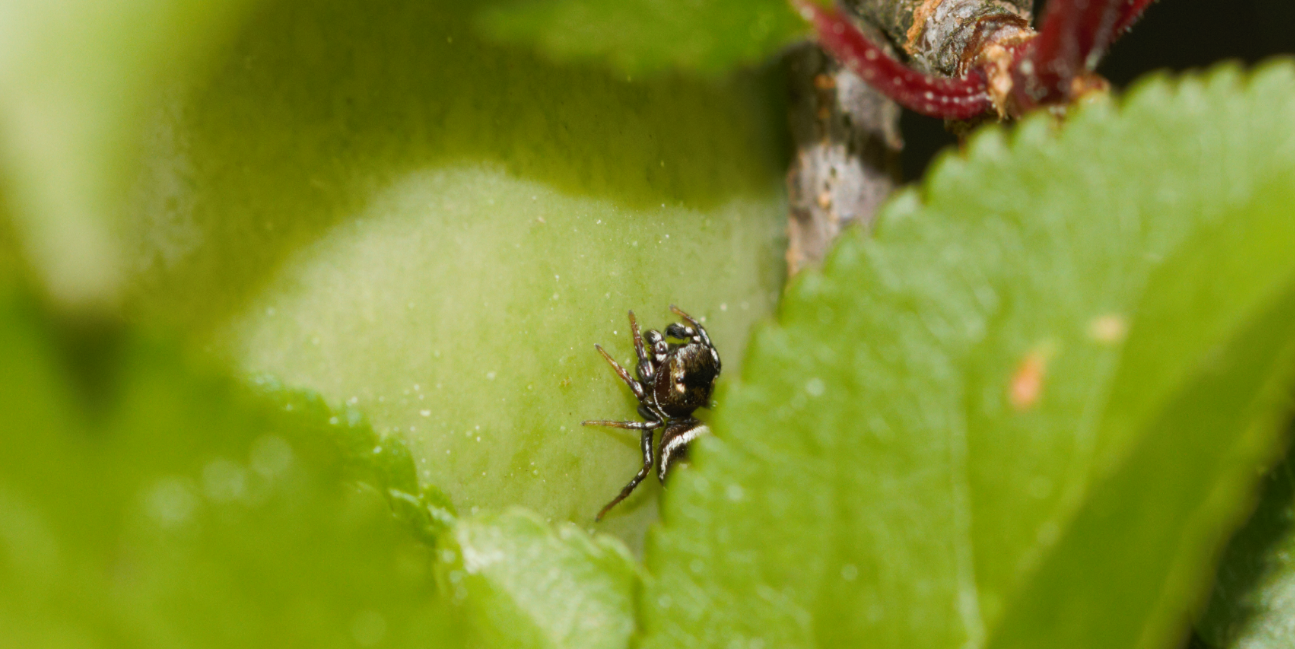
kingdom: Animalia
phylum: Arthropoda
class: Arachnida
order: Araneae
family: Salticidae
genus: Heliophanus
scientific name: Heliophanus tribulosus
